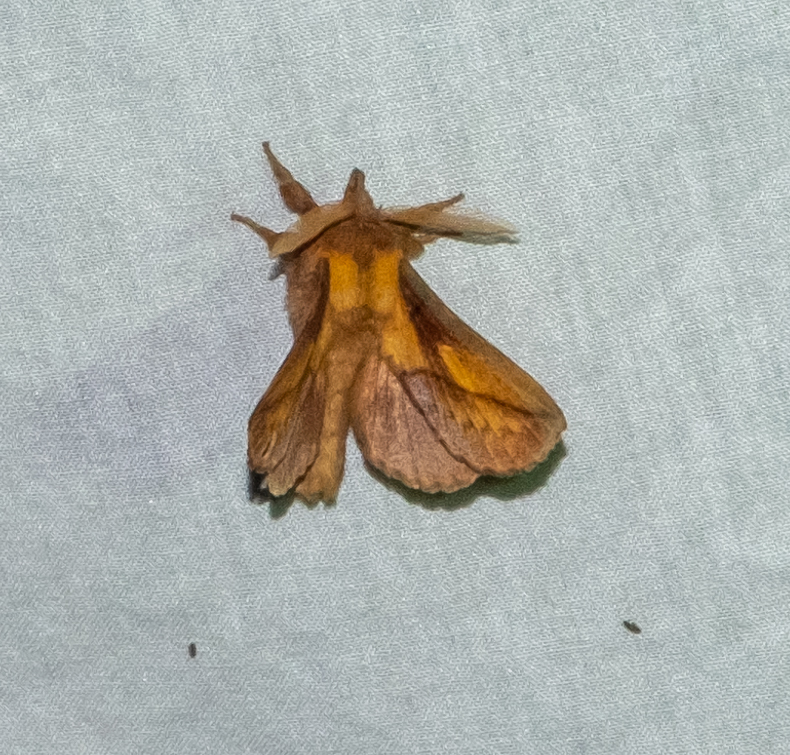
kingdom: Animalia
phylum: Arthropoda
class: Insecta
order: Lepidoptera
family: Lasiocampidae
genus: Euthrix
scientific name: Euthrix potatoria
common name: Drinker
